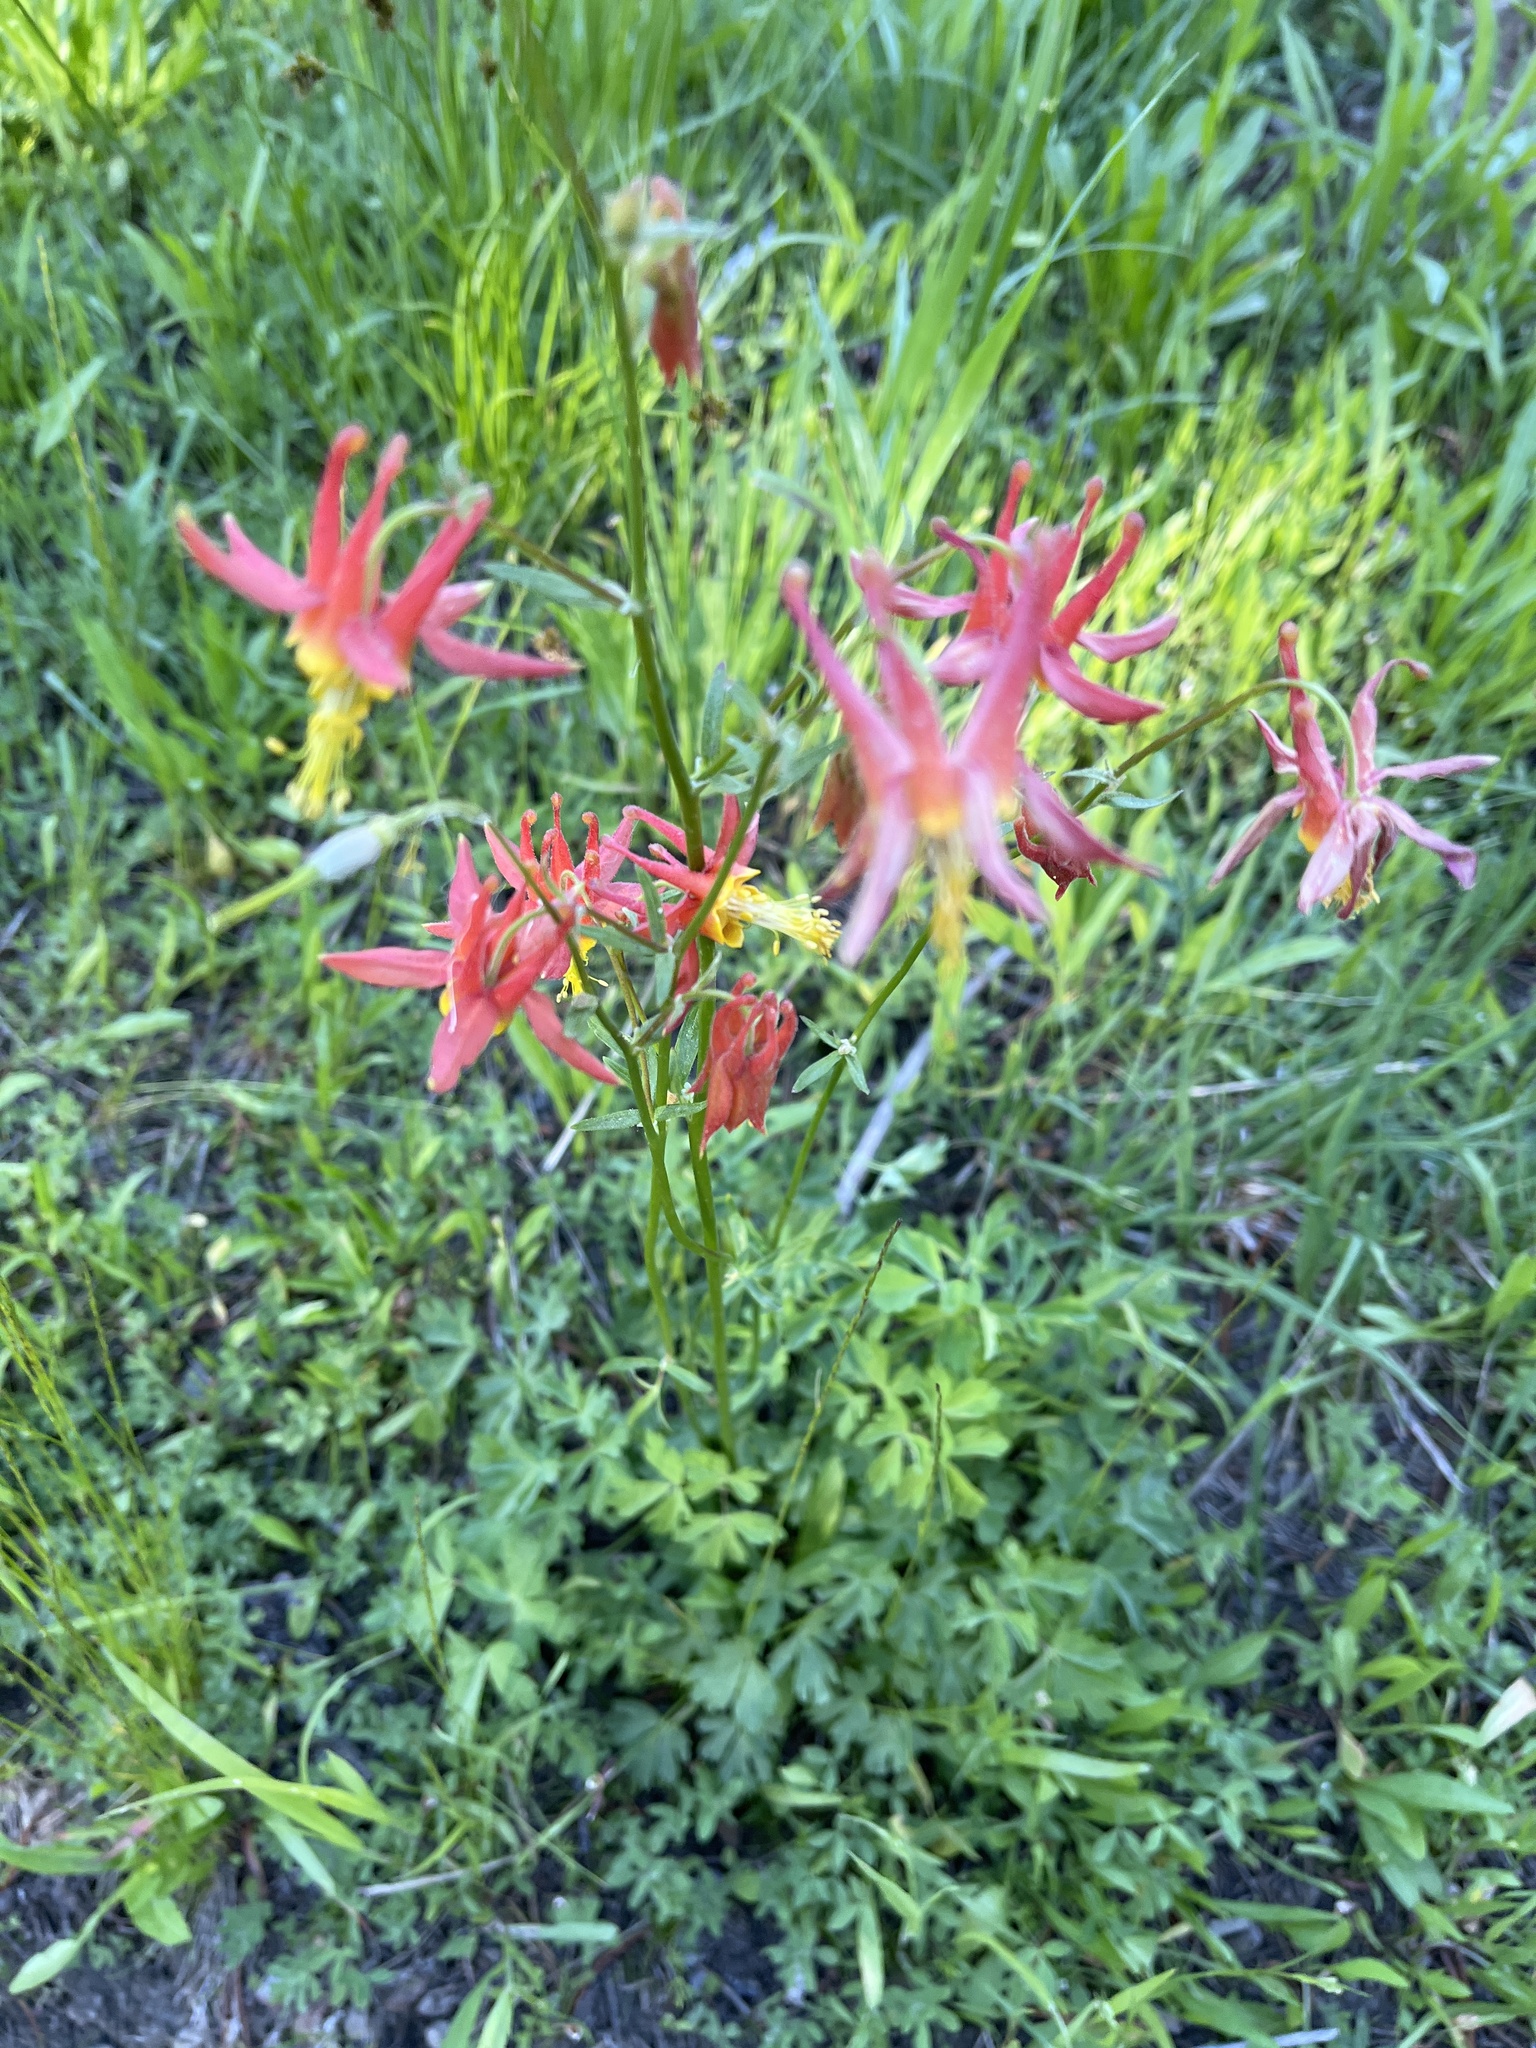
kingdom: Plantae
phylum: Tracheophyta
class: Magnoliopsida
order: Ranunculales
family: Ranunculaceae
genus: Aquilegia
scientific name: Aquilegia formosa
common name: Sitka columbine
